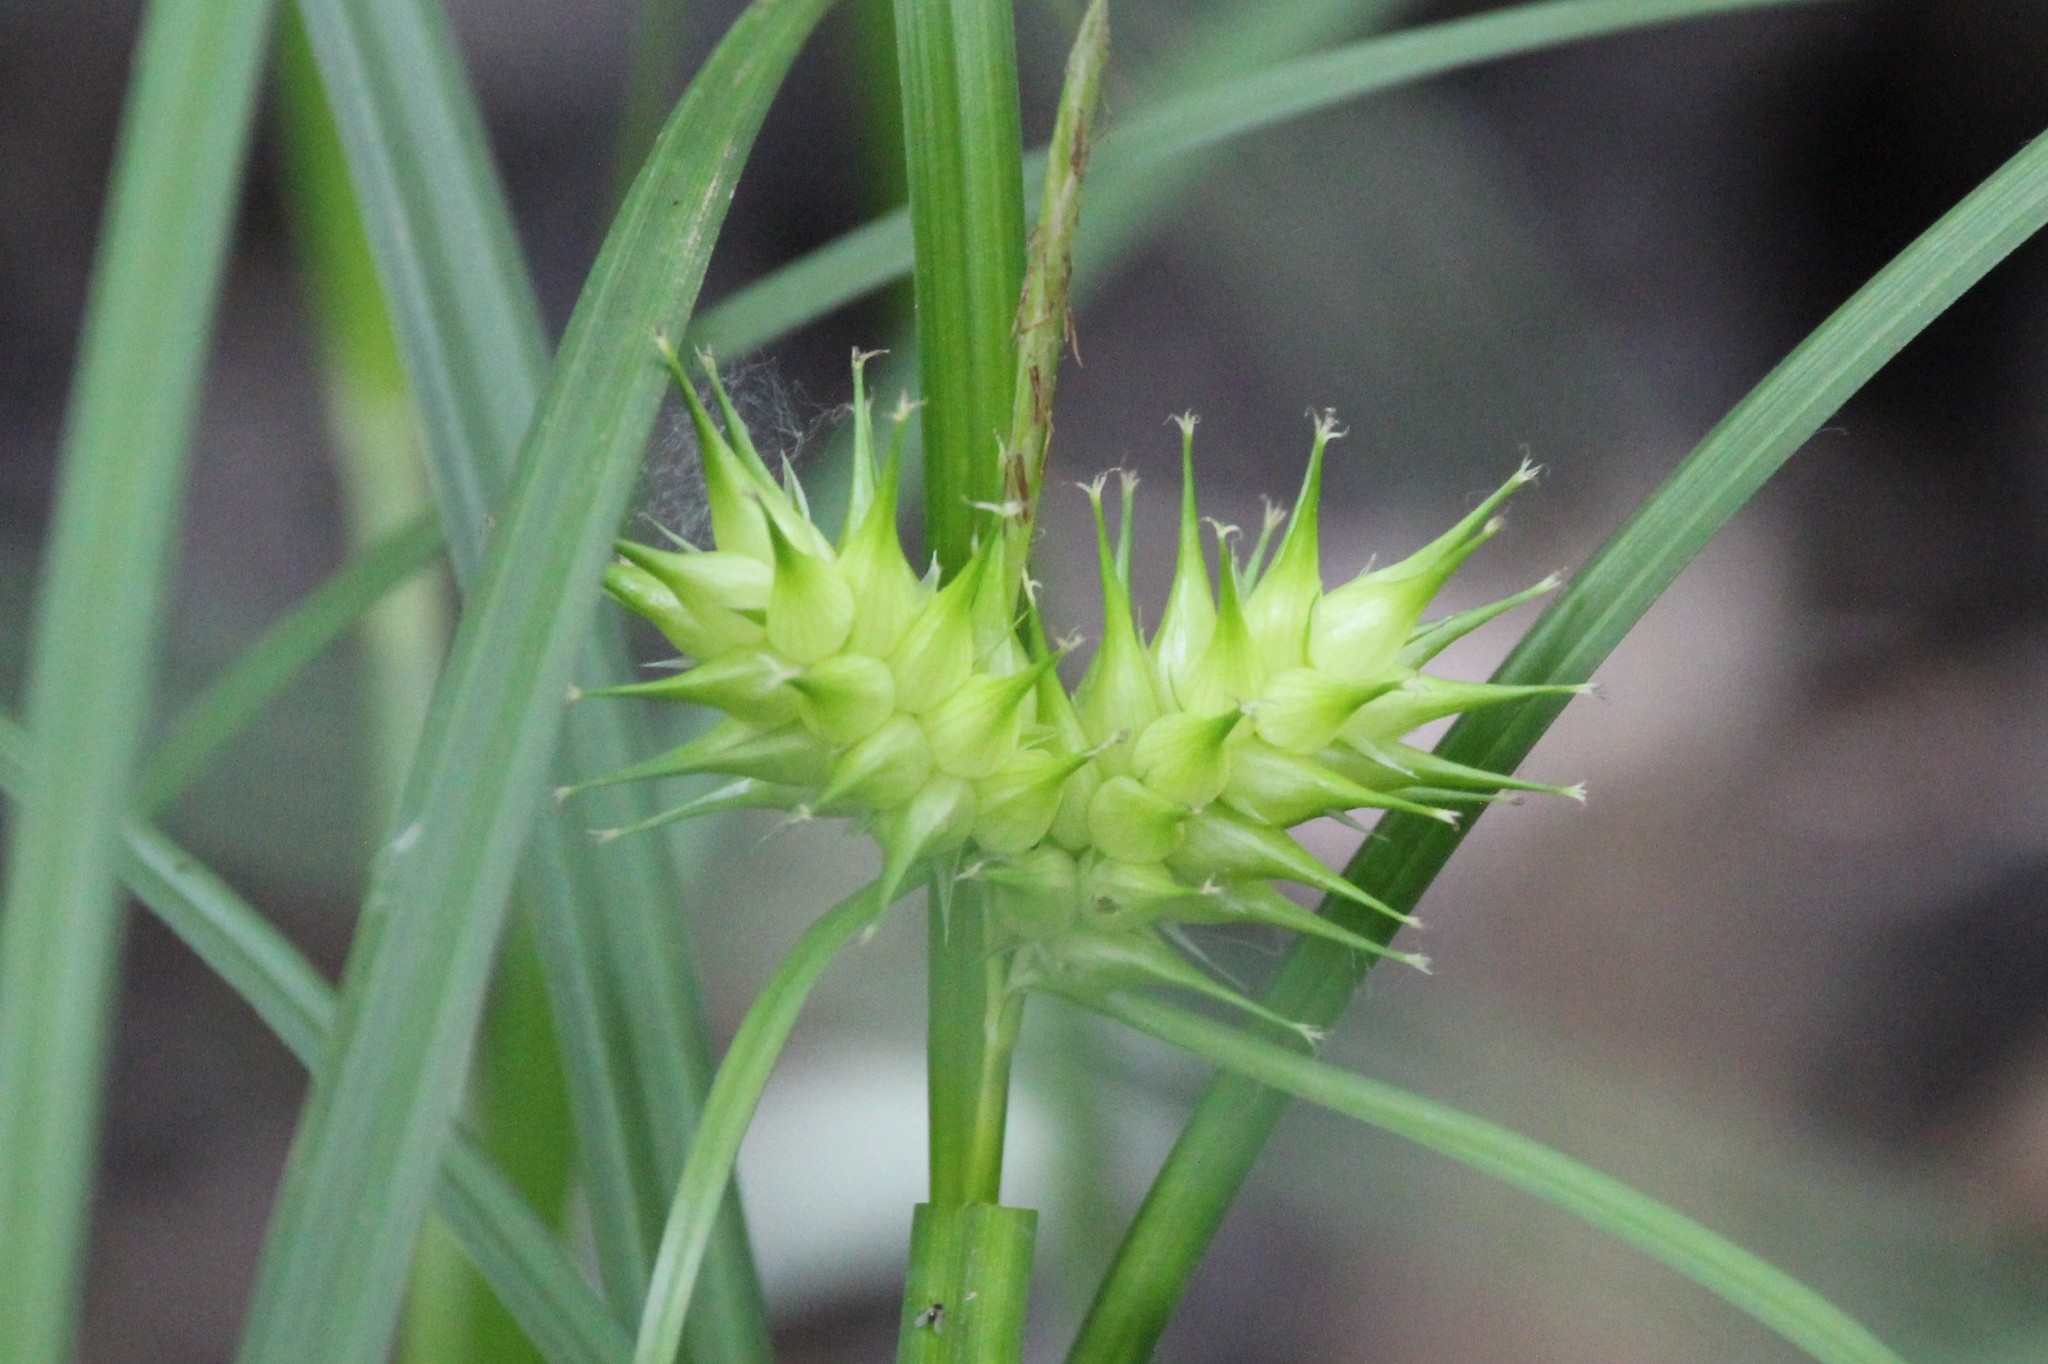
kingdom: Plantae
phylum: Tracheophyta
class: Liliopsida
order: Poales
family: Cyperaceae
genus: Carex
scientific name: Carex lupulina
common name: Hop sedge
